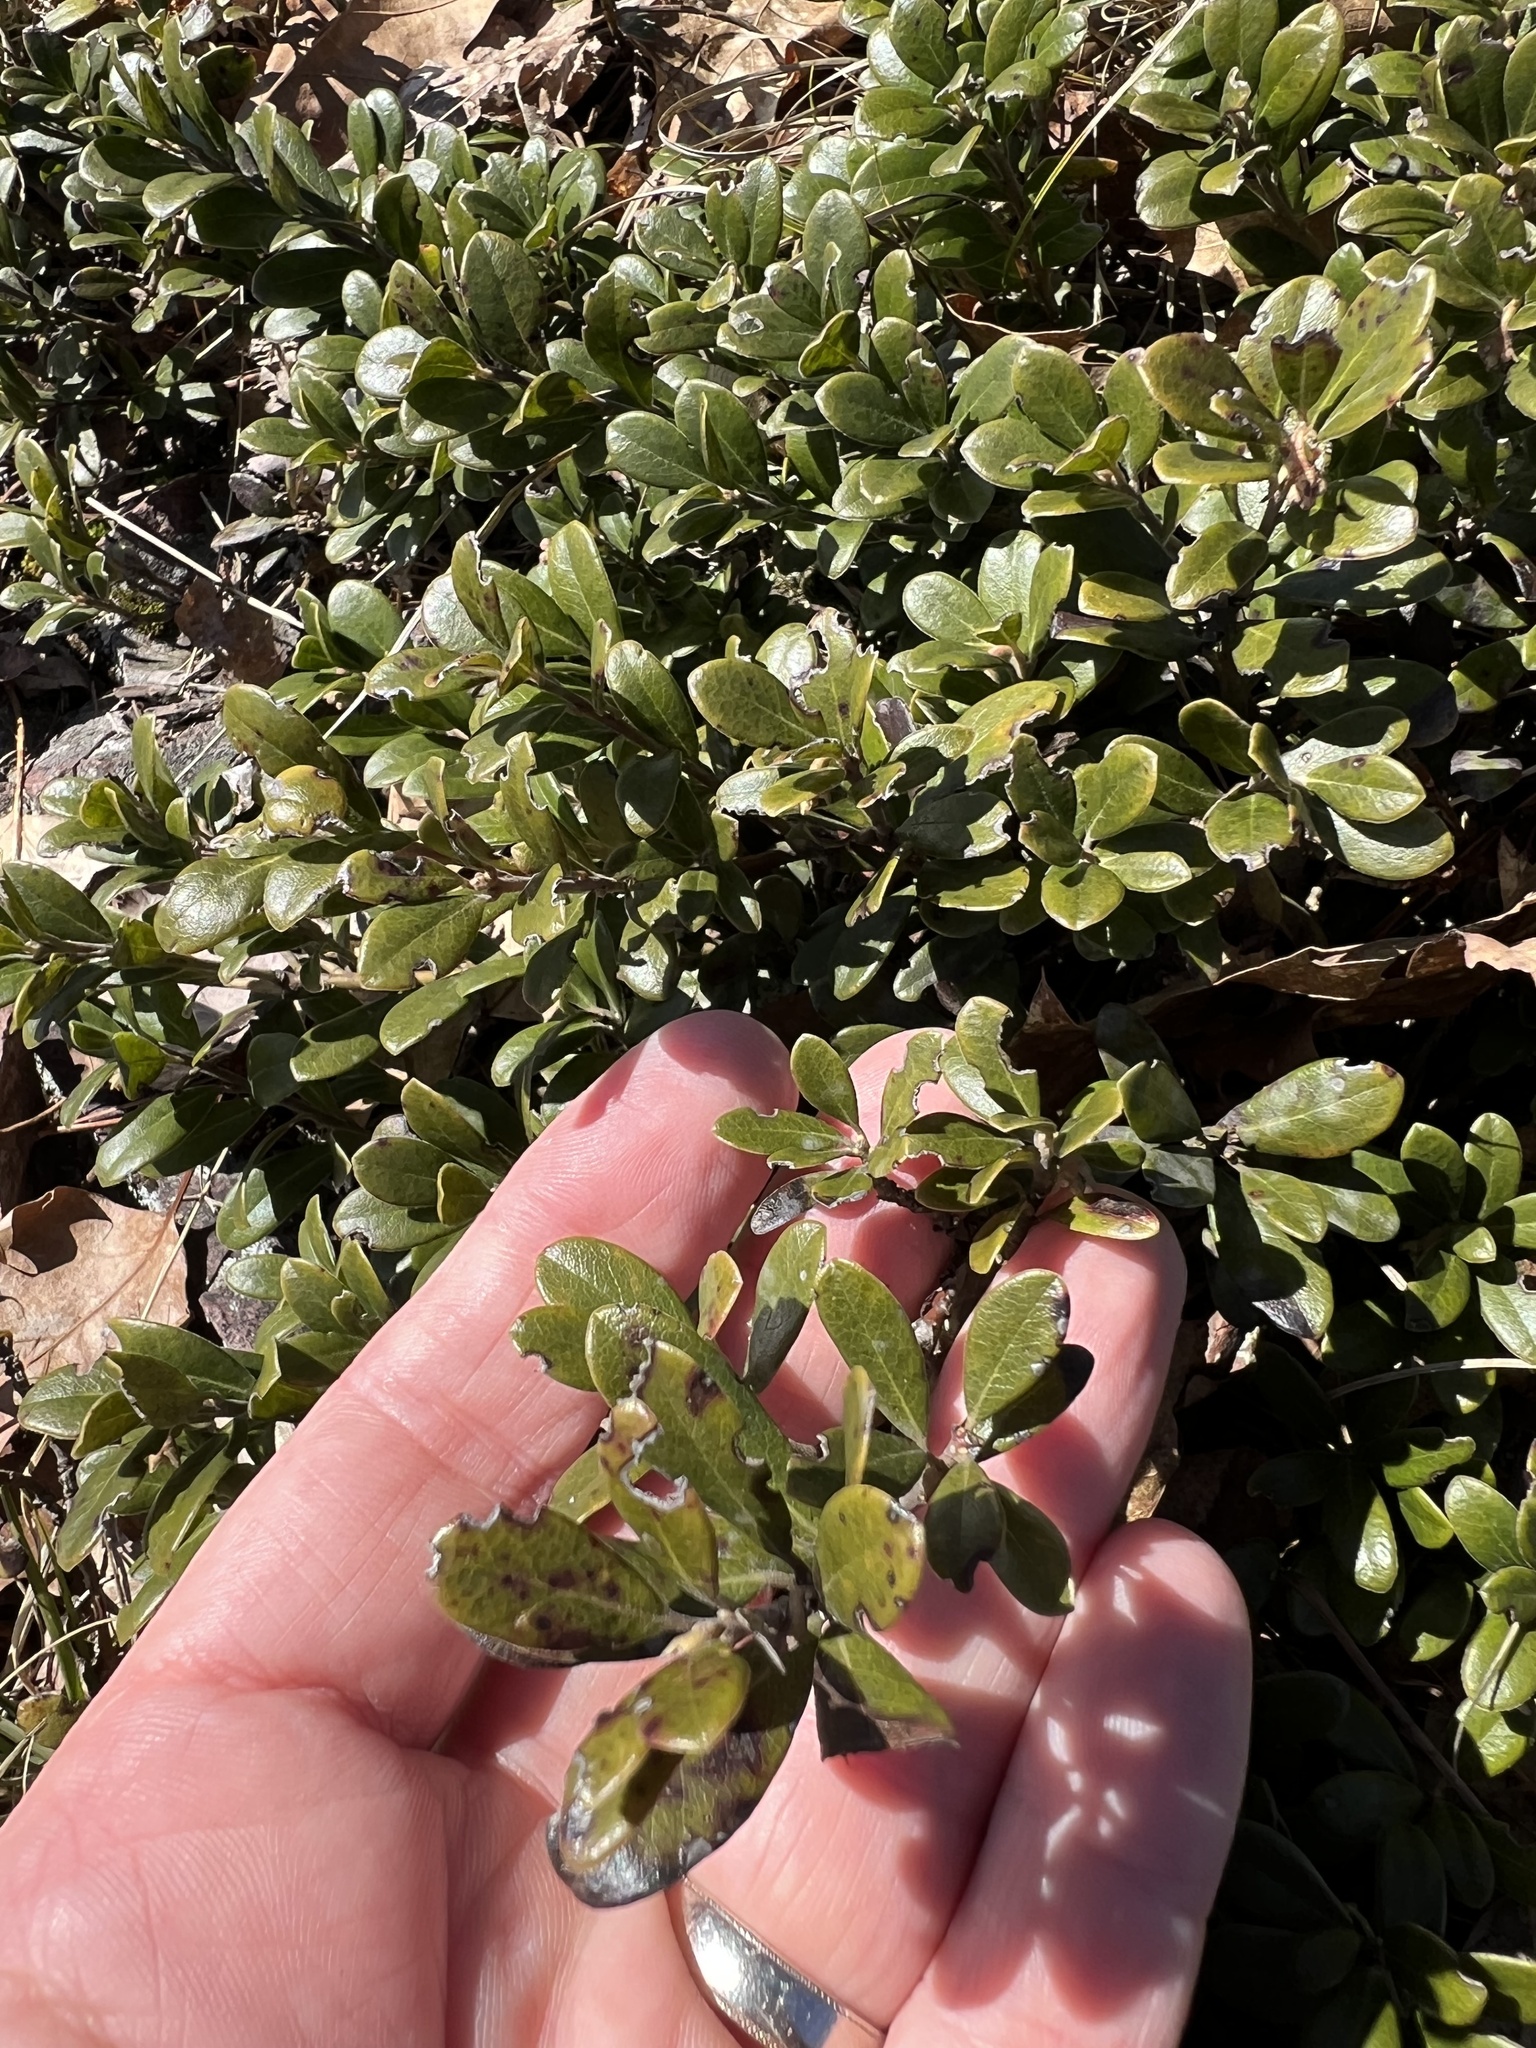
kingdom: Plantae
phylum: Tracheophyta
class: Magnoliopsida
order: Ericales
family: Ericaceae
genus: Arctostaphylos
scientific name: Arctostaphylos uva-ursi
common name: Bearberry
